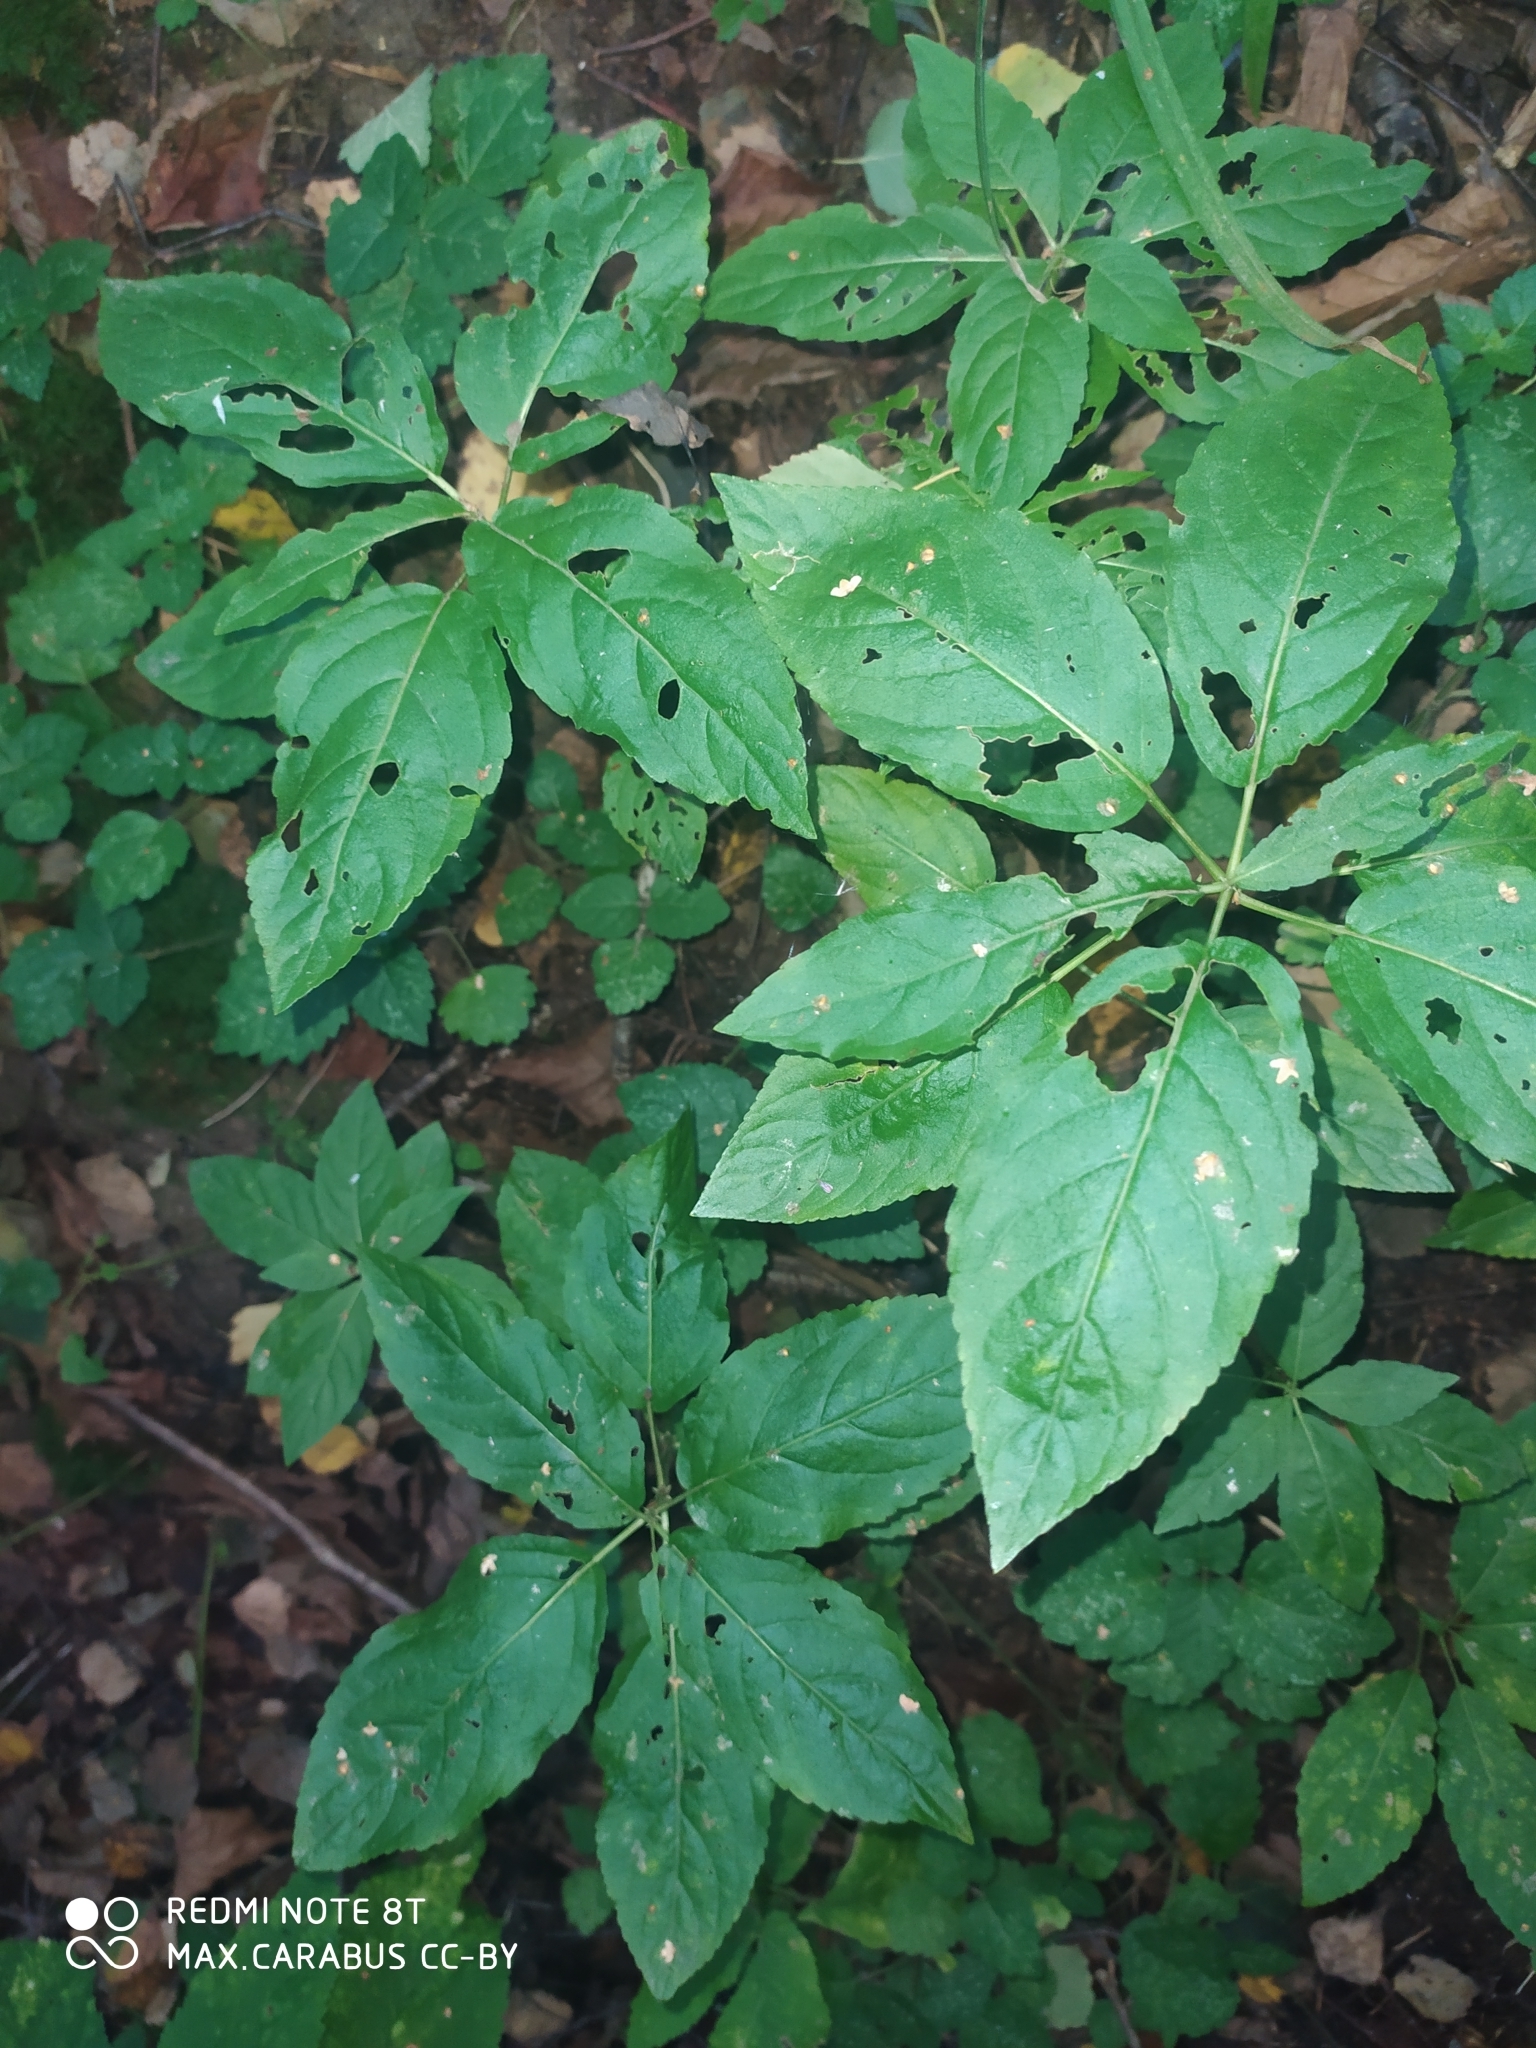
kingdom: Plantae
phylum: Tracheophyta
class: Magnoliopsida
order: Malpighiales
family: Euphorbiaceae
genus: Mercurialis
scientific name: Mercurialis perennis
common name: Dog mercury
